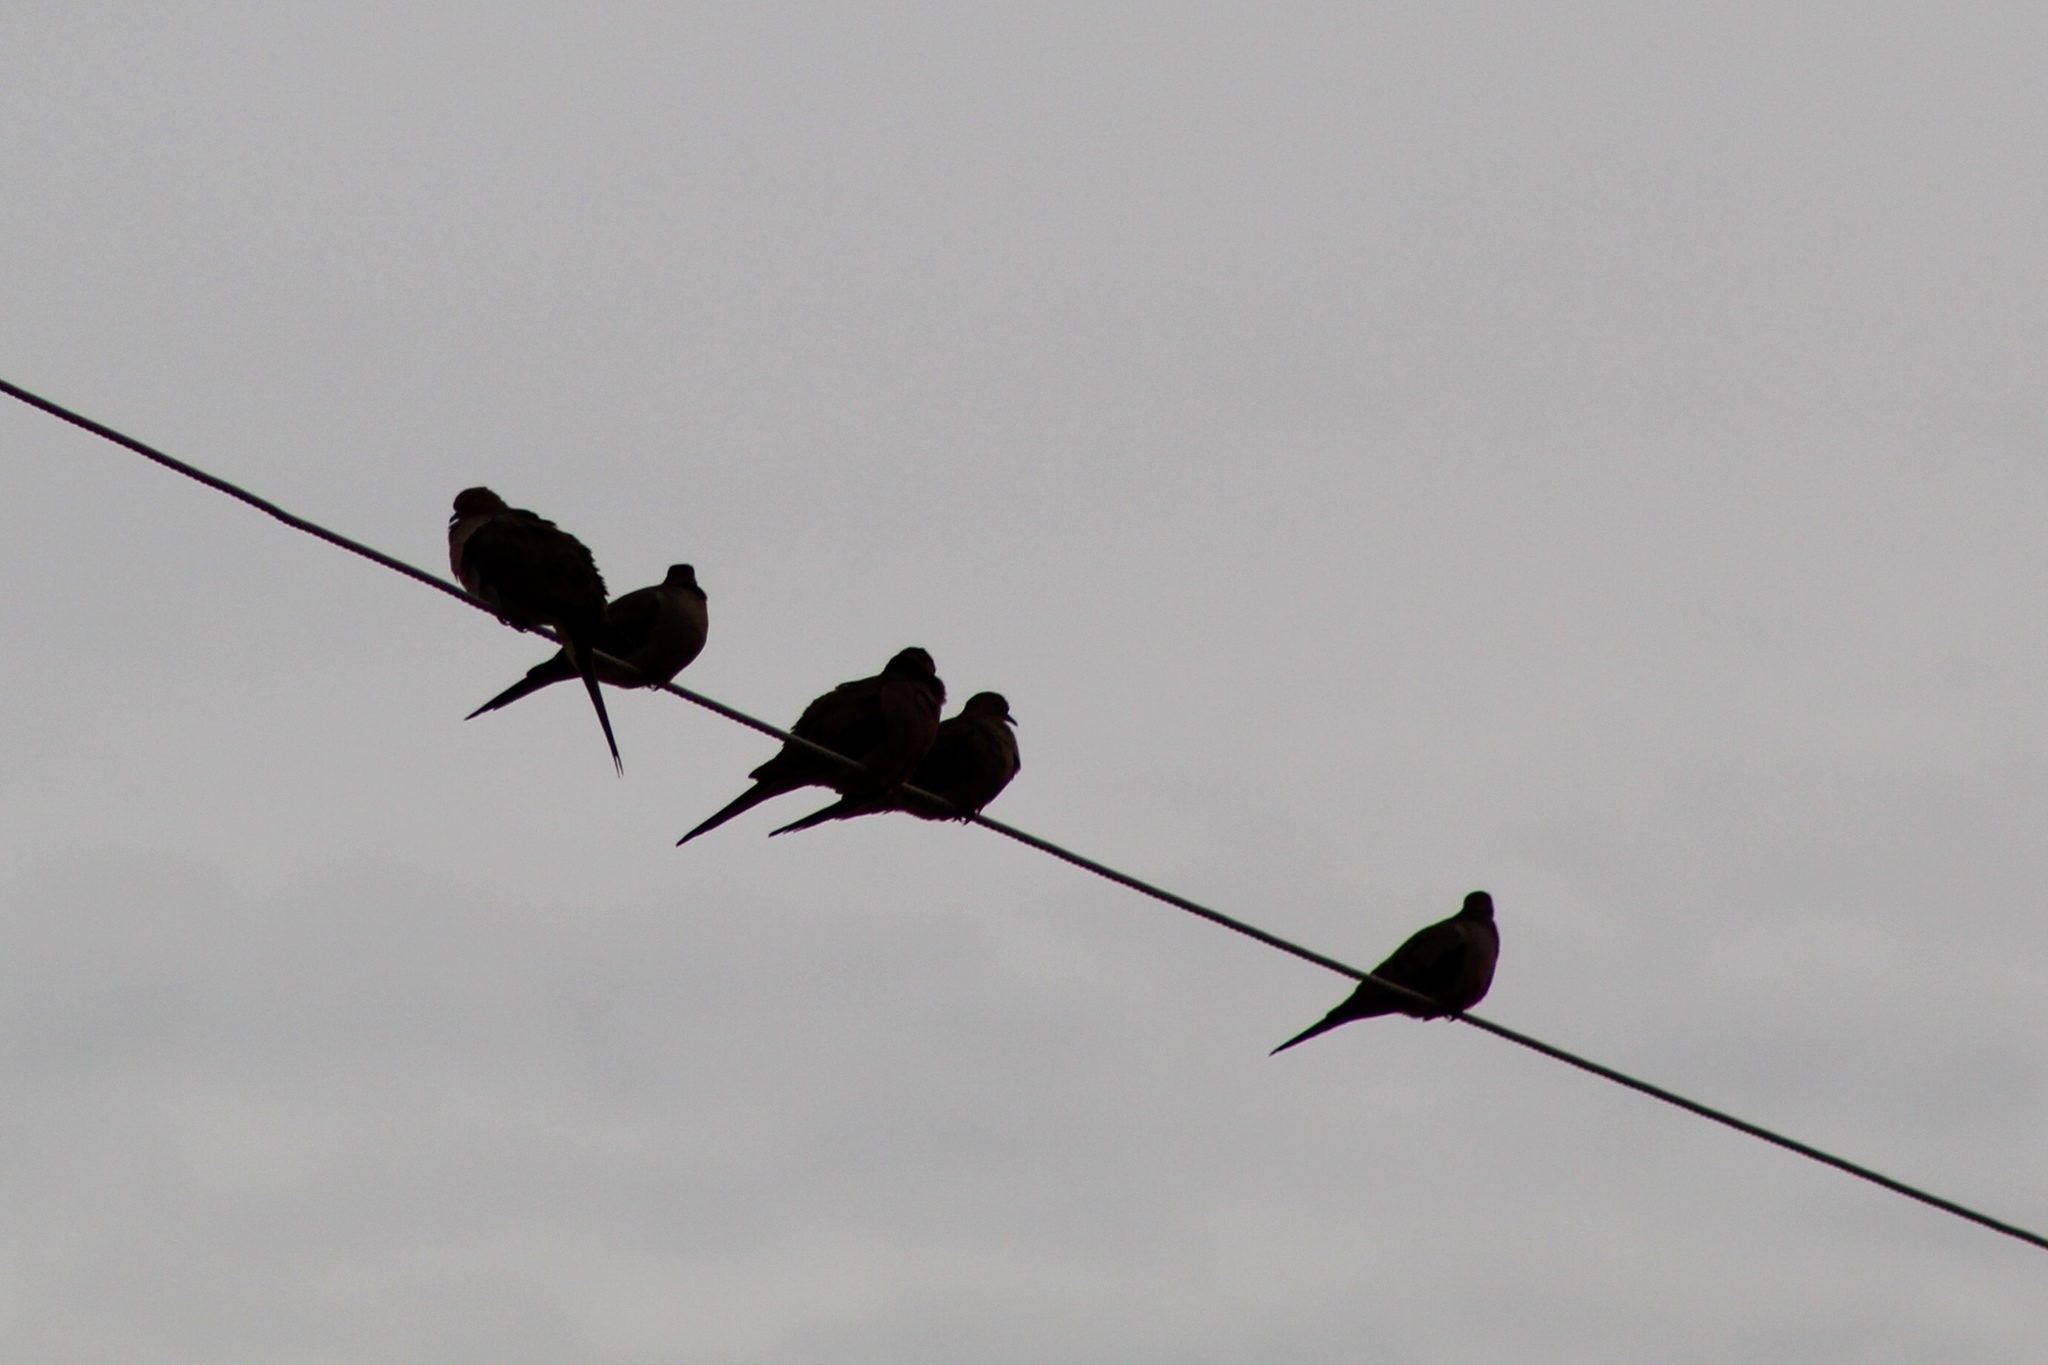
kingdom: Animalia
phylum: Chordata
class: Aves
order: Columbiformes
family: Columbidae
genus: Zenaida
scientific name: Zenaida macroura
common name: Mourning dove
